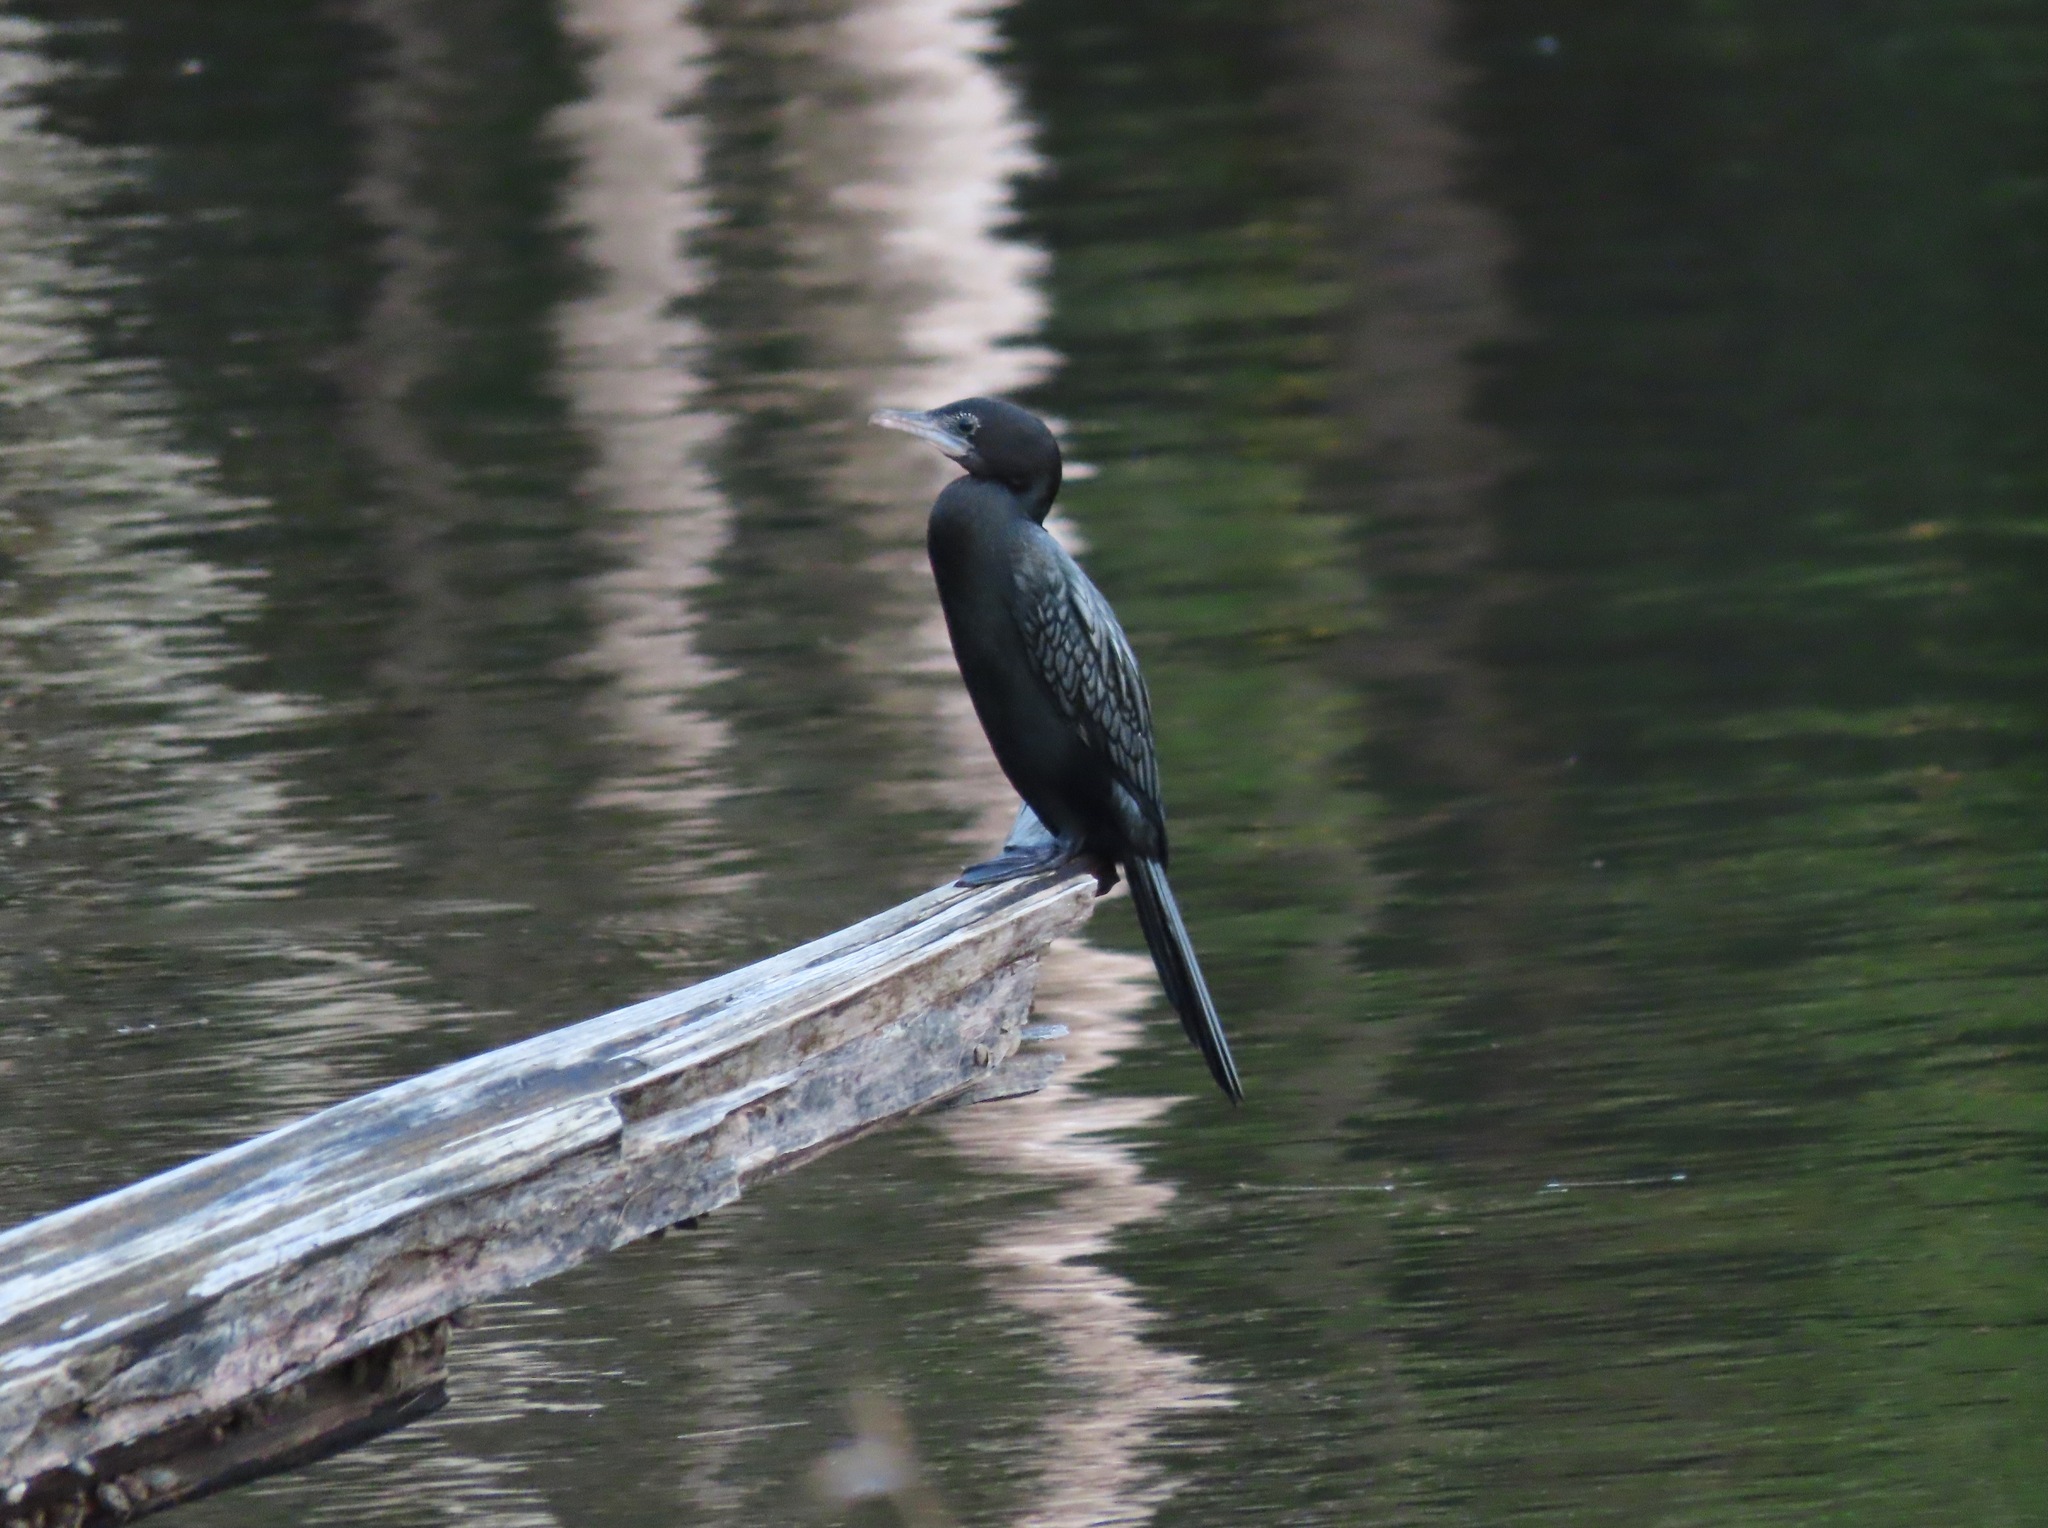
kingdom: Animalia
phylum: Chordata
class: Aves
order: Suliformes
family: Phalacrocoracidae
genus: Microcarbo
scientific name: Microcarbo niger
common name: Little cormorant
